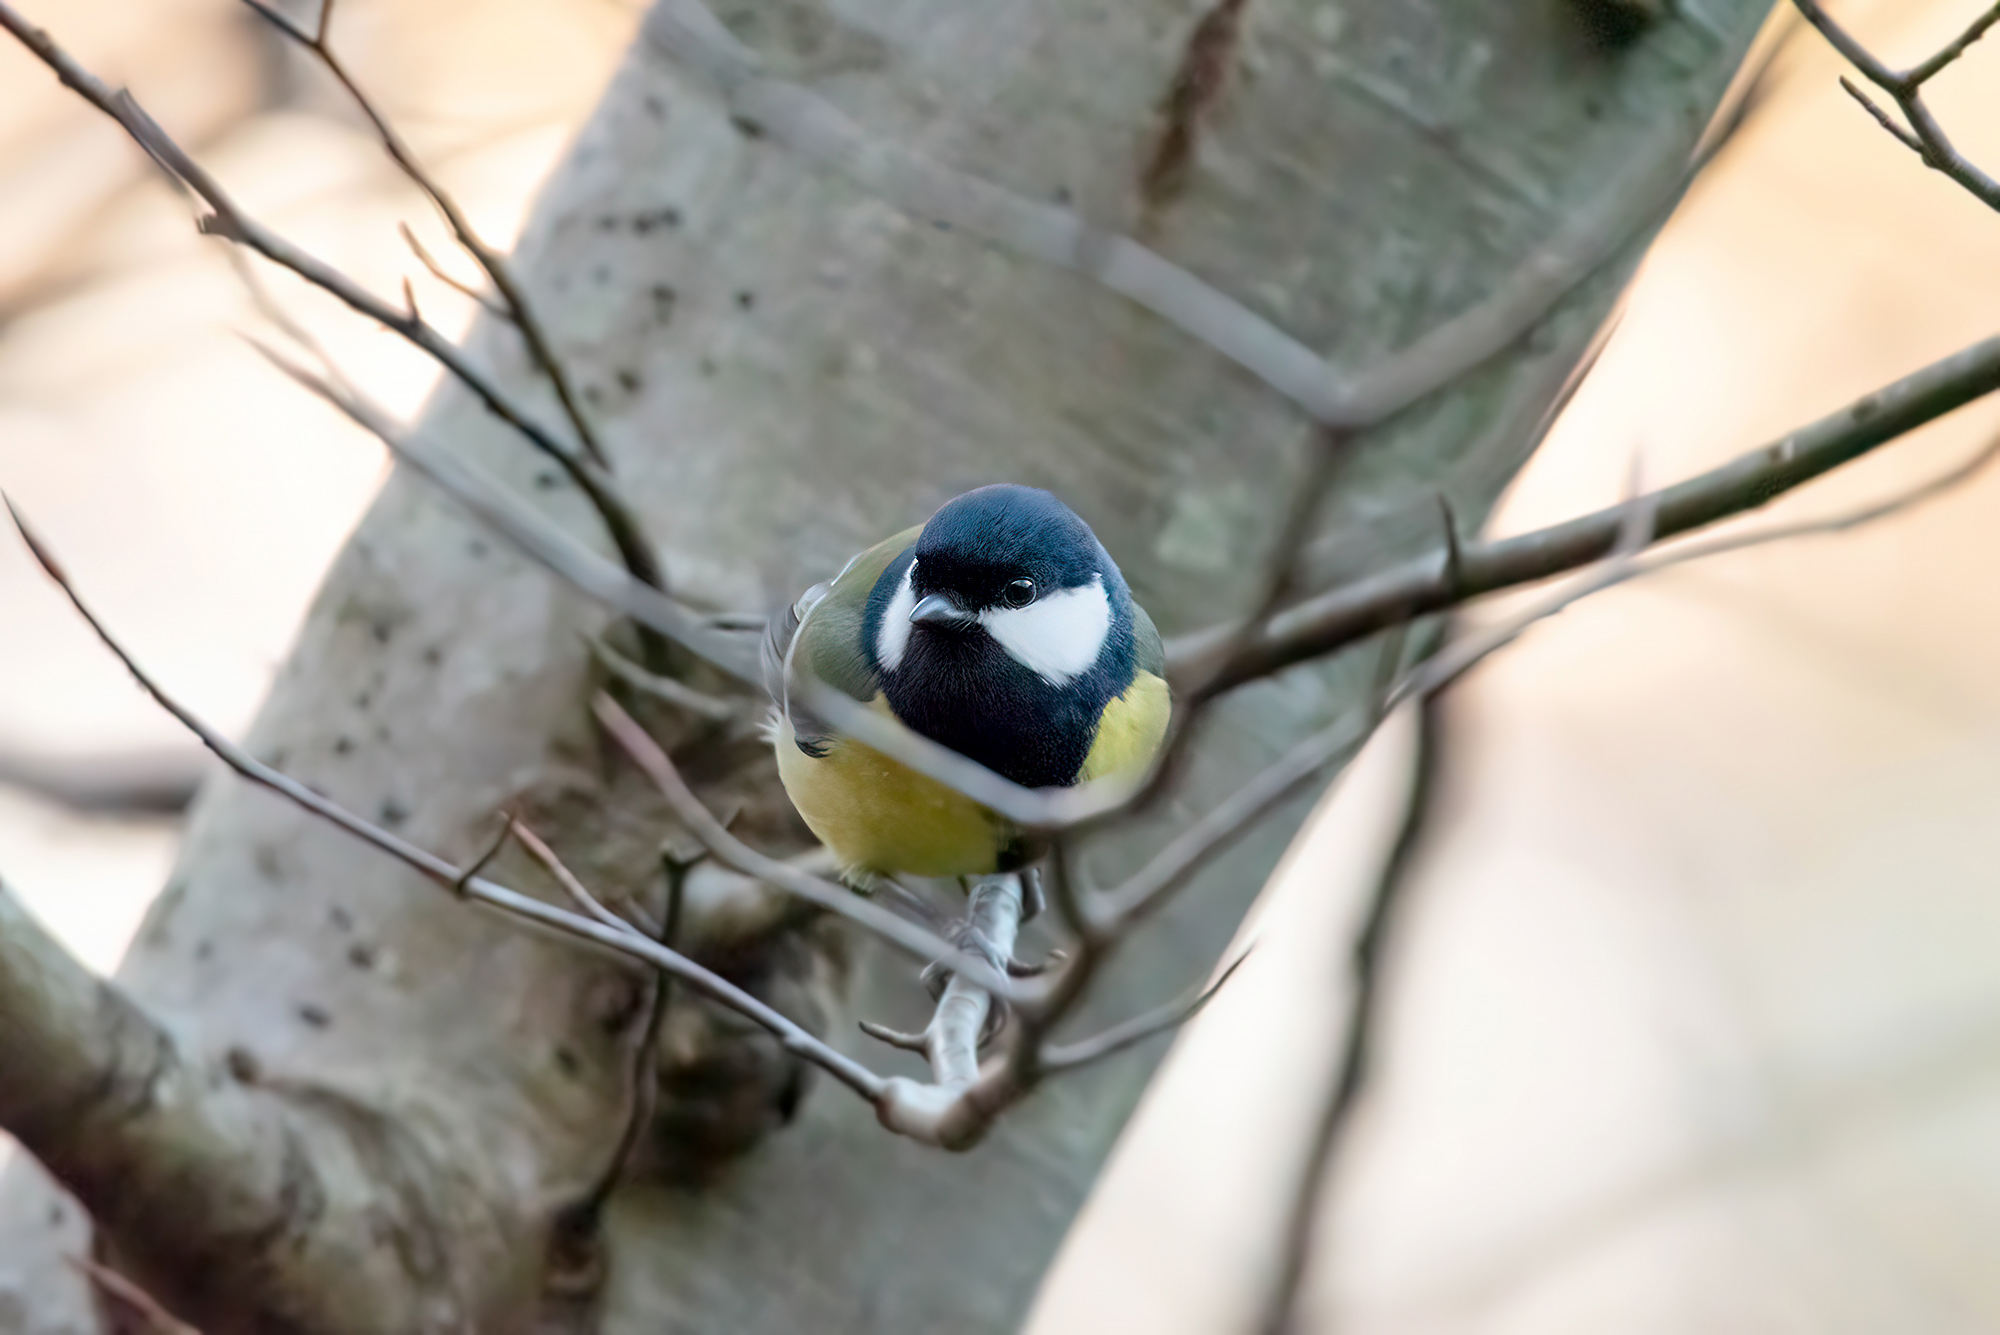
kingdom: Animalia
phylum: Chordata
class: Aves
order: Passeriformes
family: Paridae
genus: Parus
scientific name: Parus major
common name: Great tit
